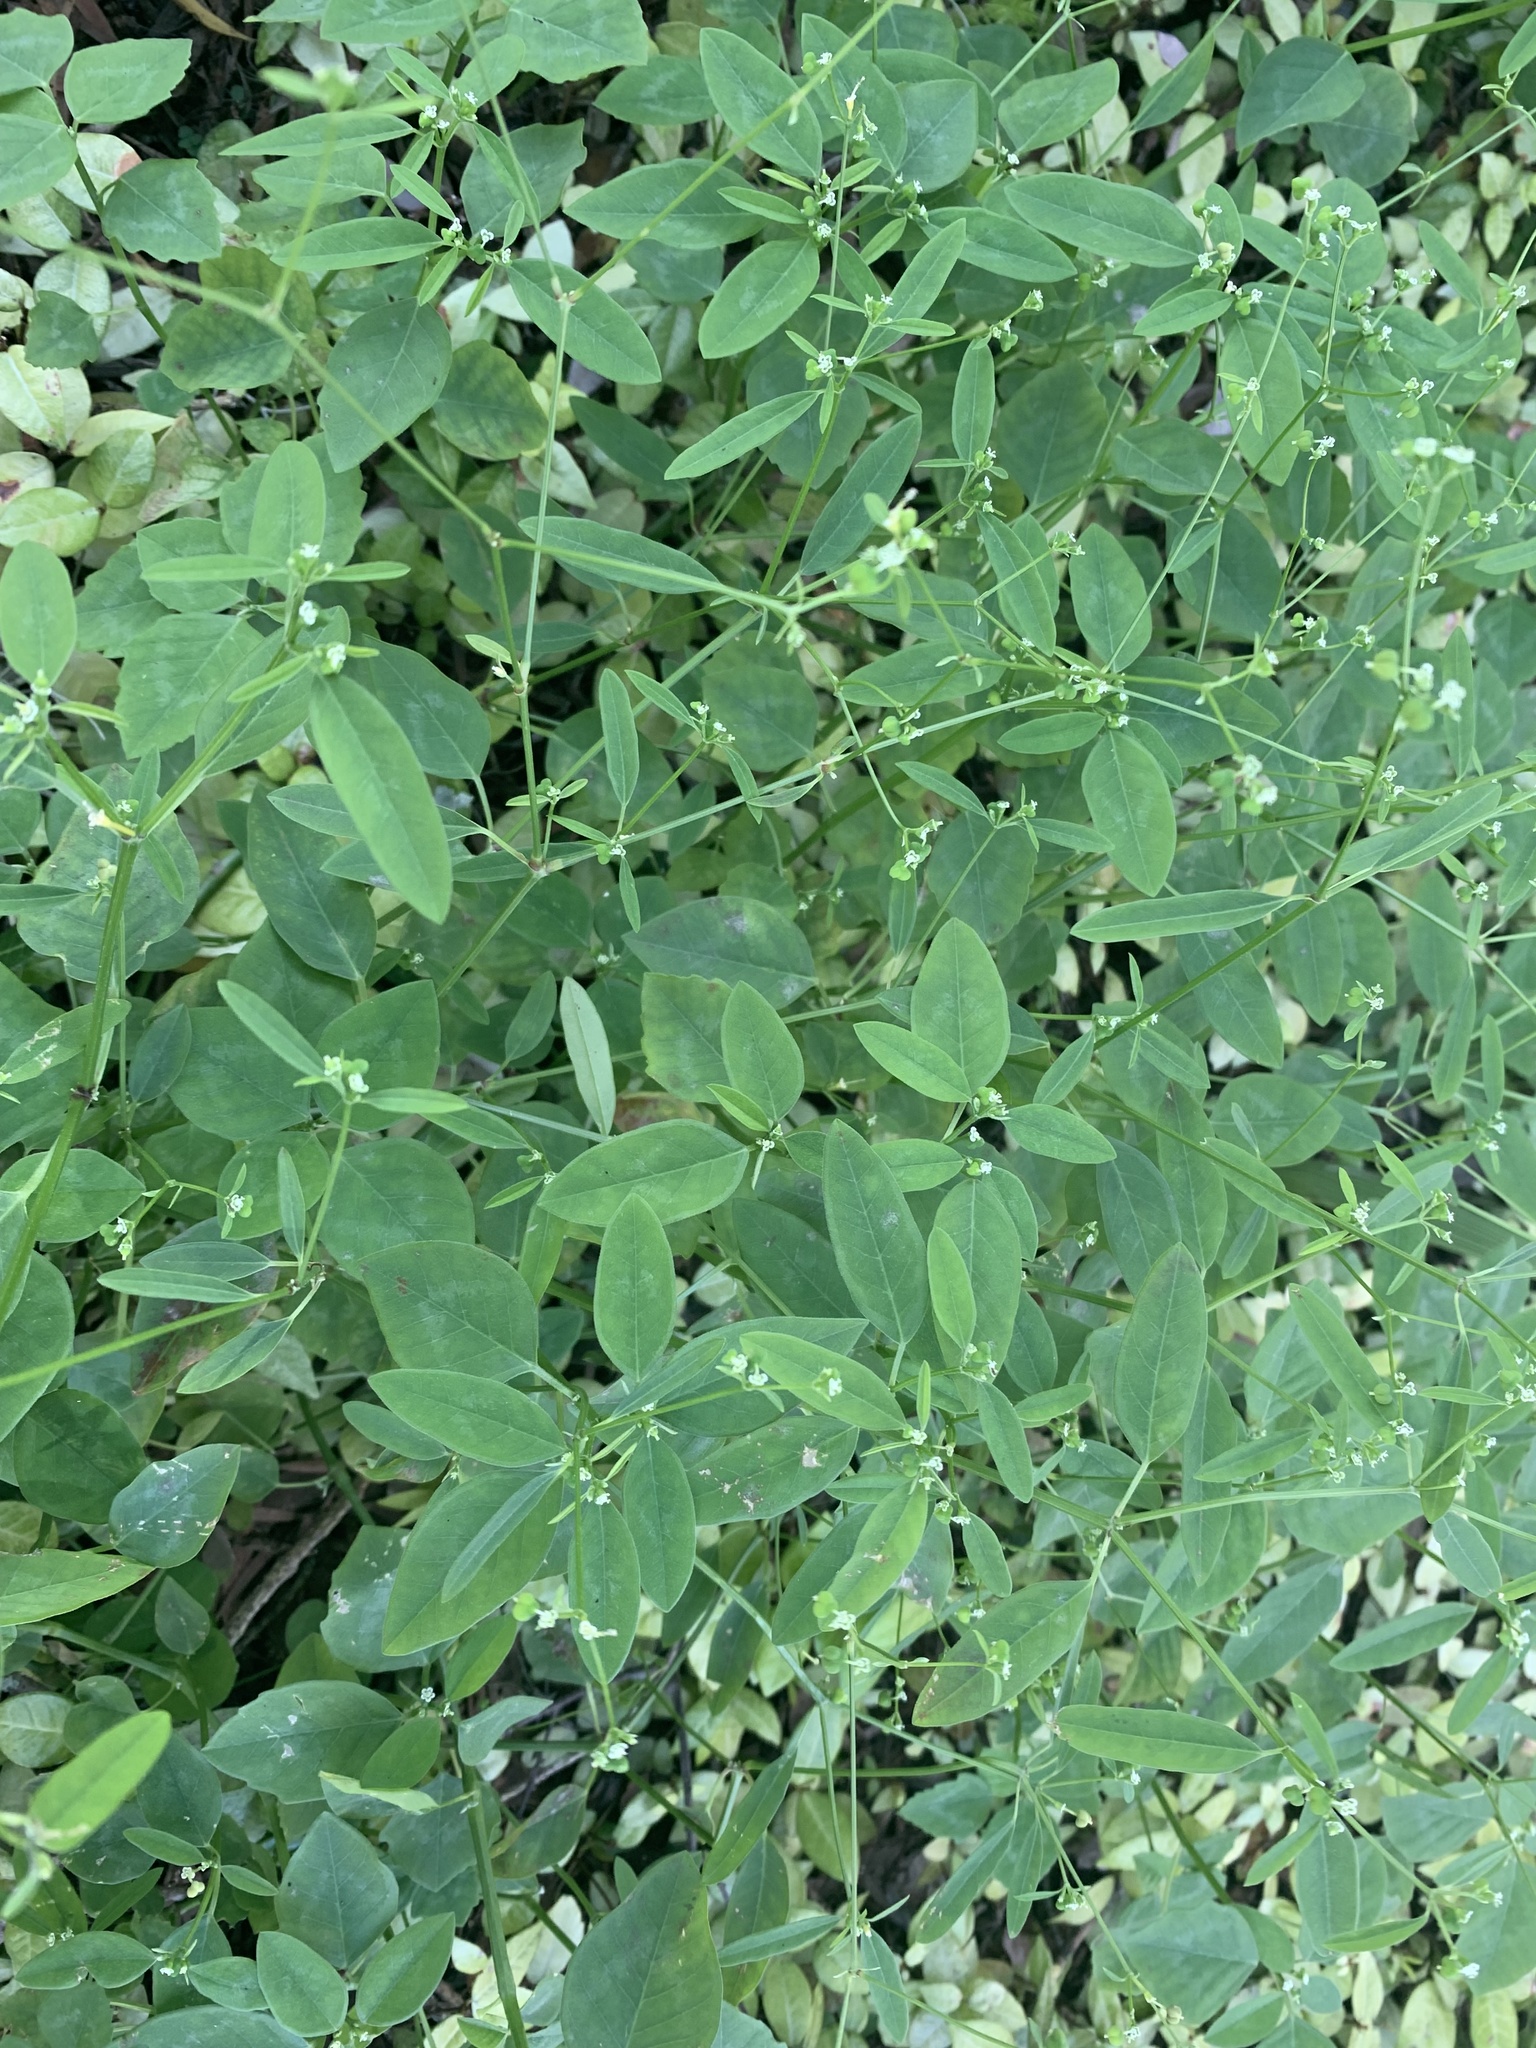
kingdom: Plantae
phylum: Tracheophyta
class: Magnoliopsida
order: Malpighiales
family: Euphorbiaceae
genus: Euphorbia
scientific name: Euphorbia graminea
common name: Grassleaf spurge
